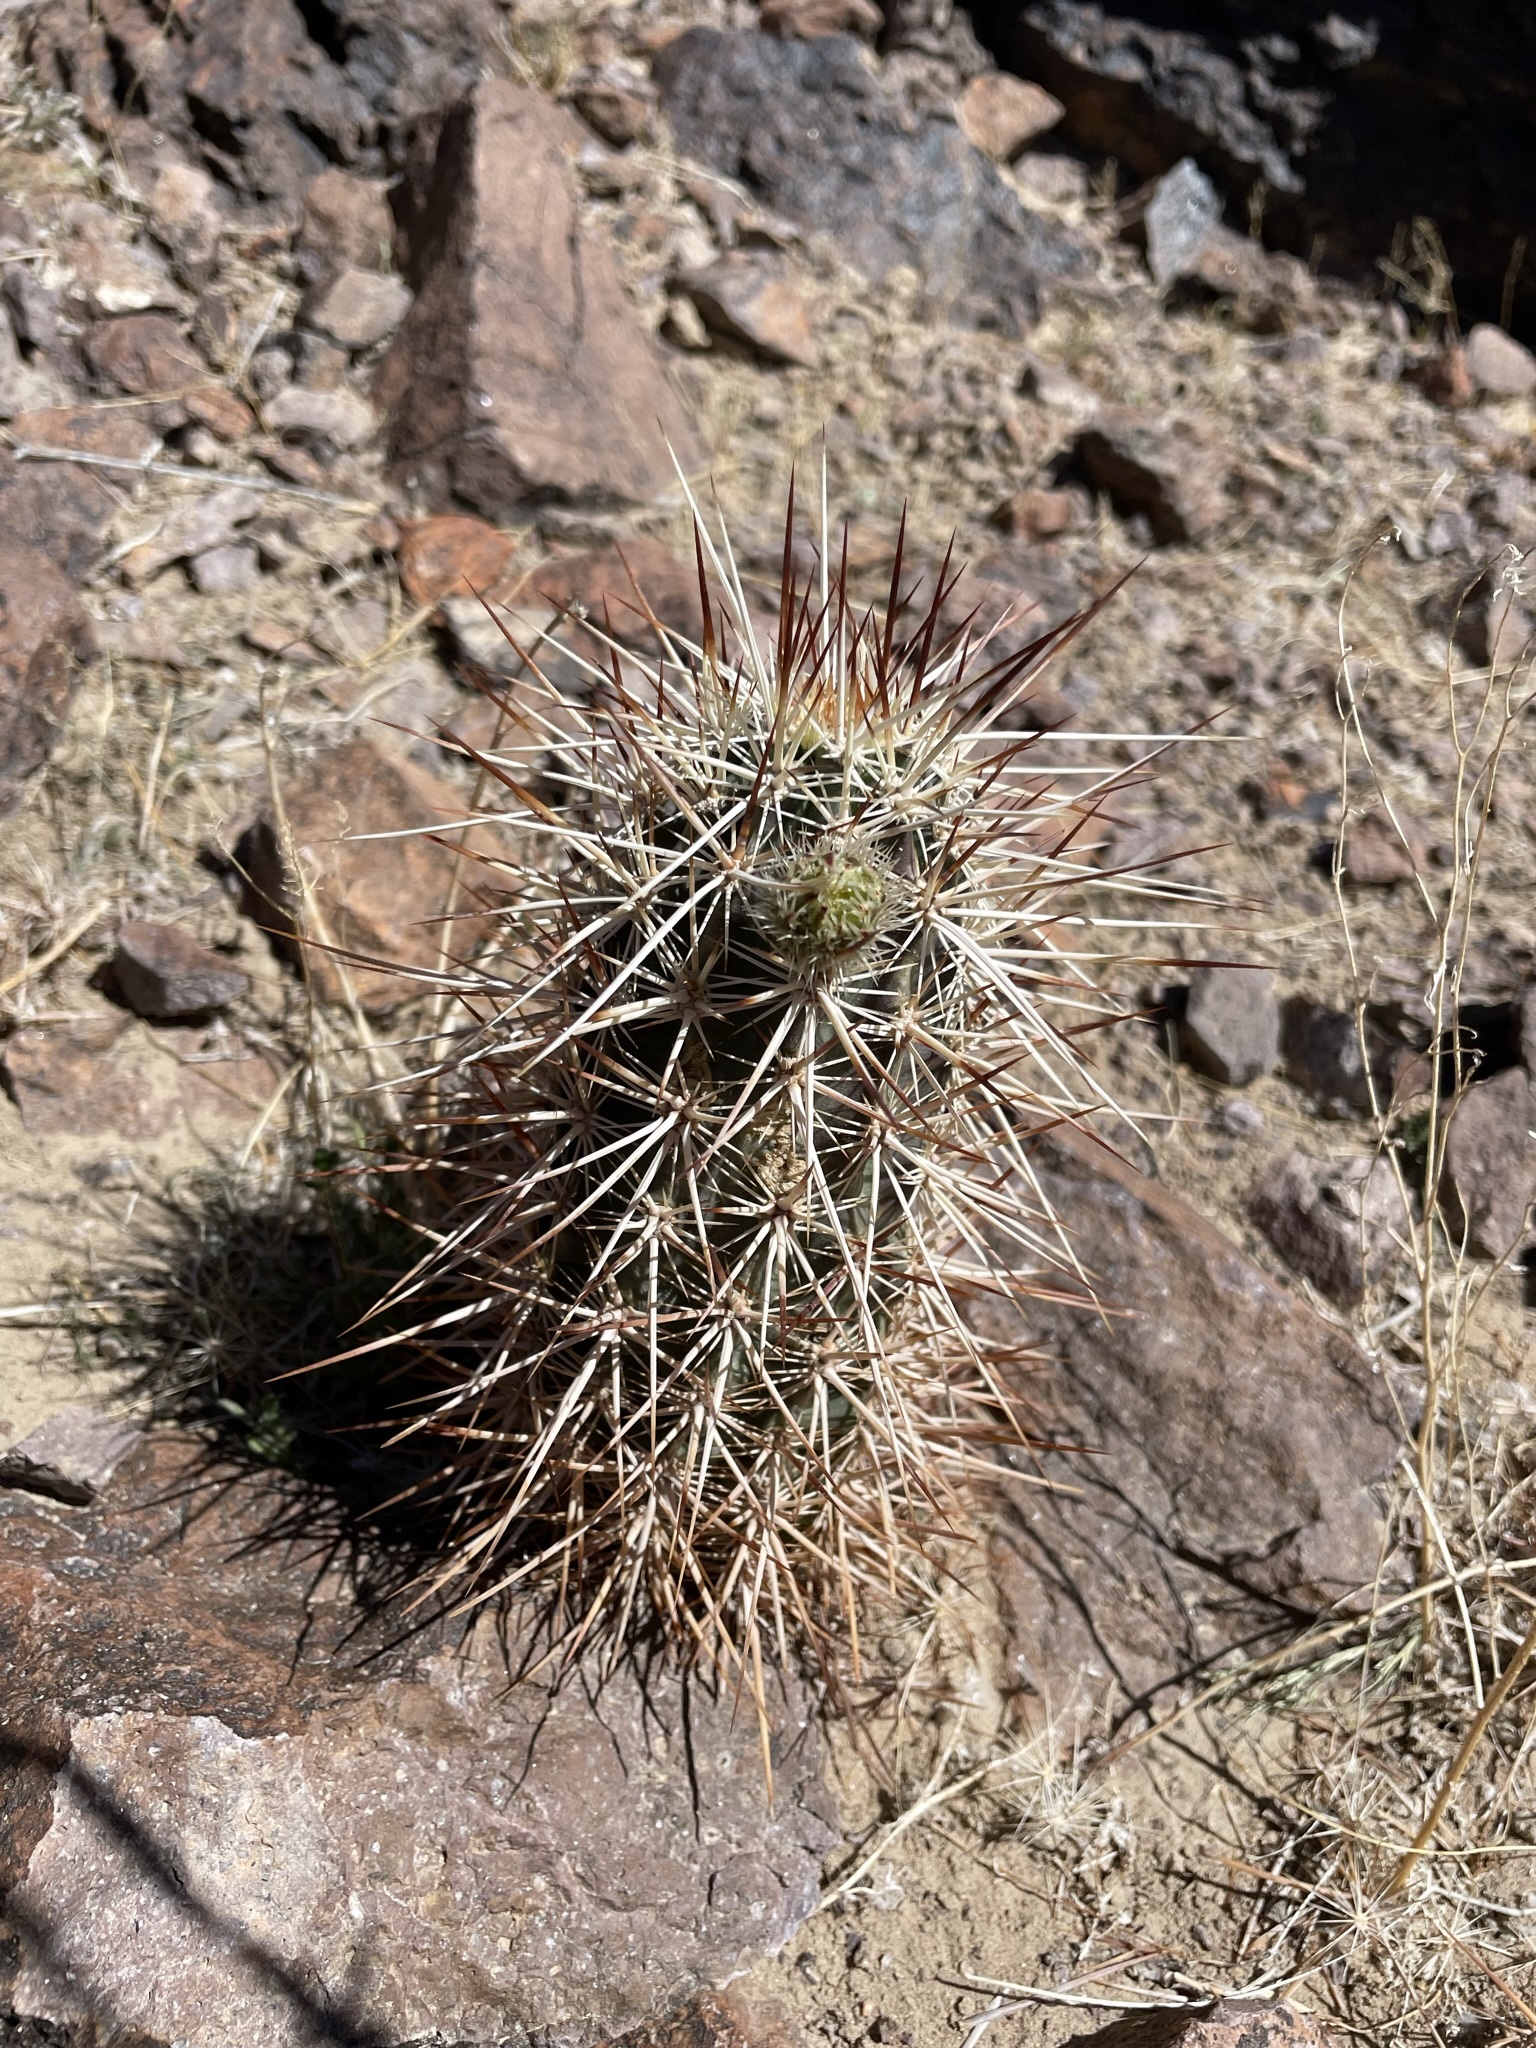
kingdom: Plantae
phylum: Tracheophyta
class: Magnoliopsida
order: Caryophyllales
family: Cactaceae
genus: Echinocereus
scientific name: Echinocereus engelmannii
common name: Engelmann's hedgehog cactus
